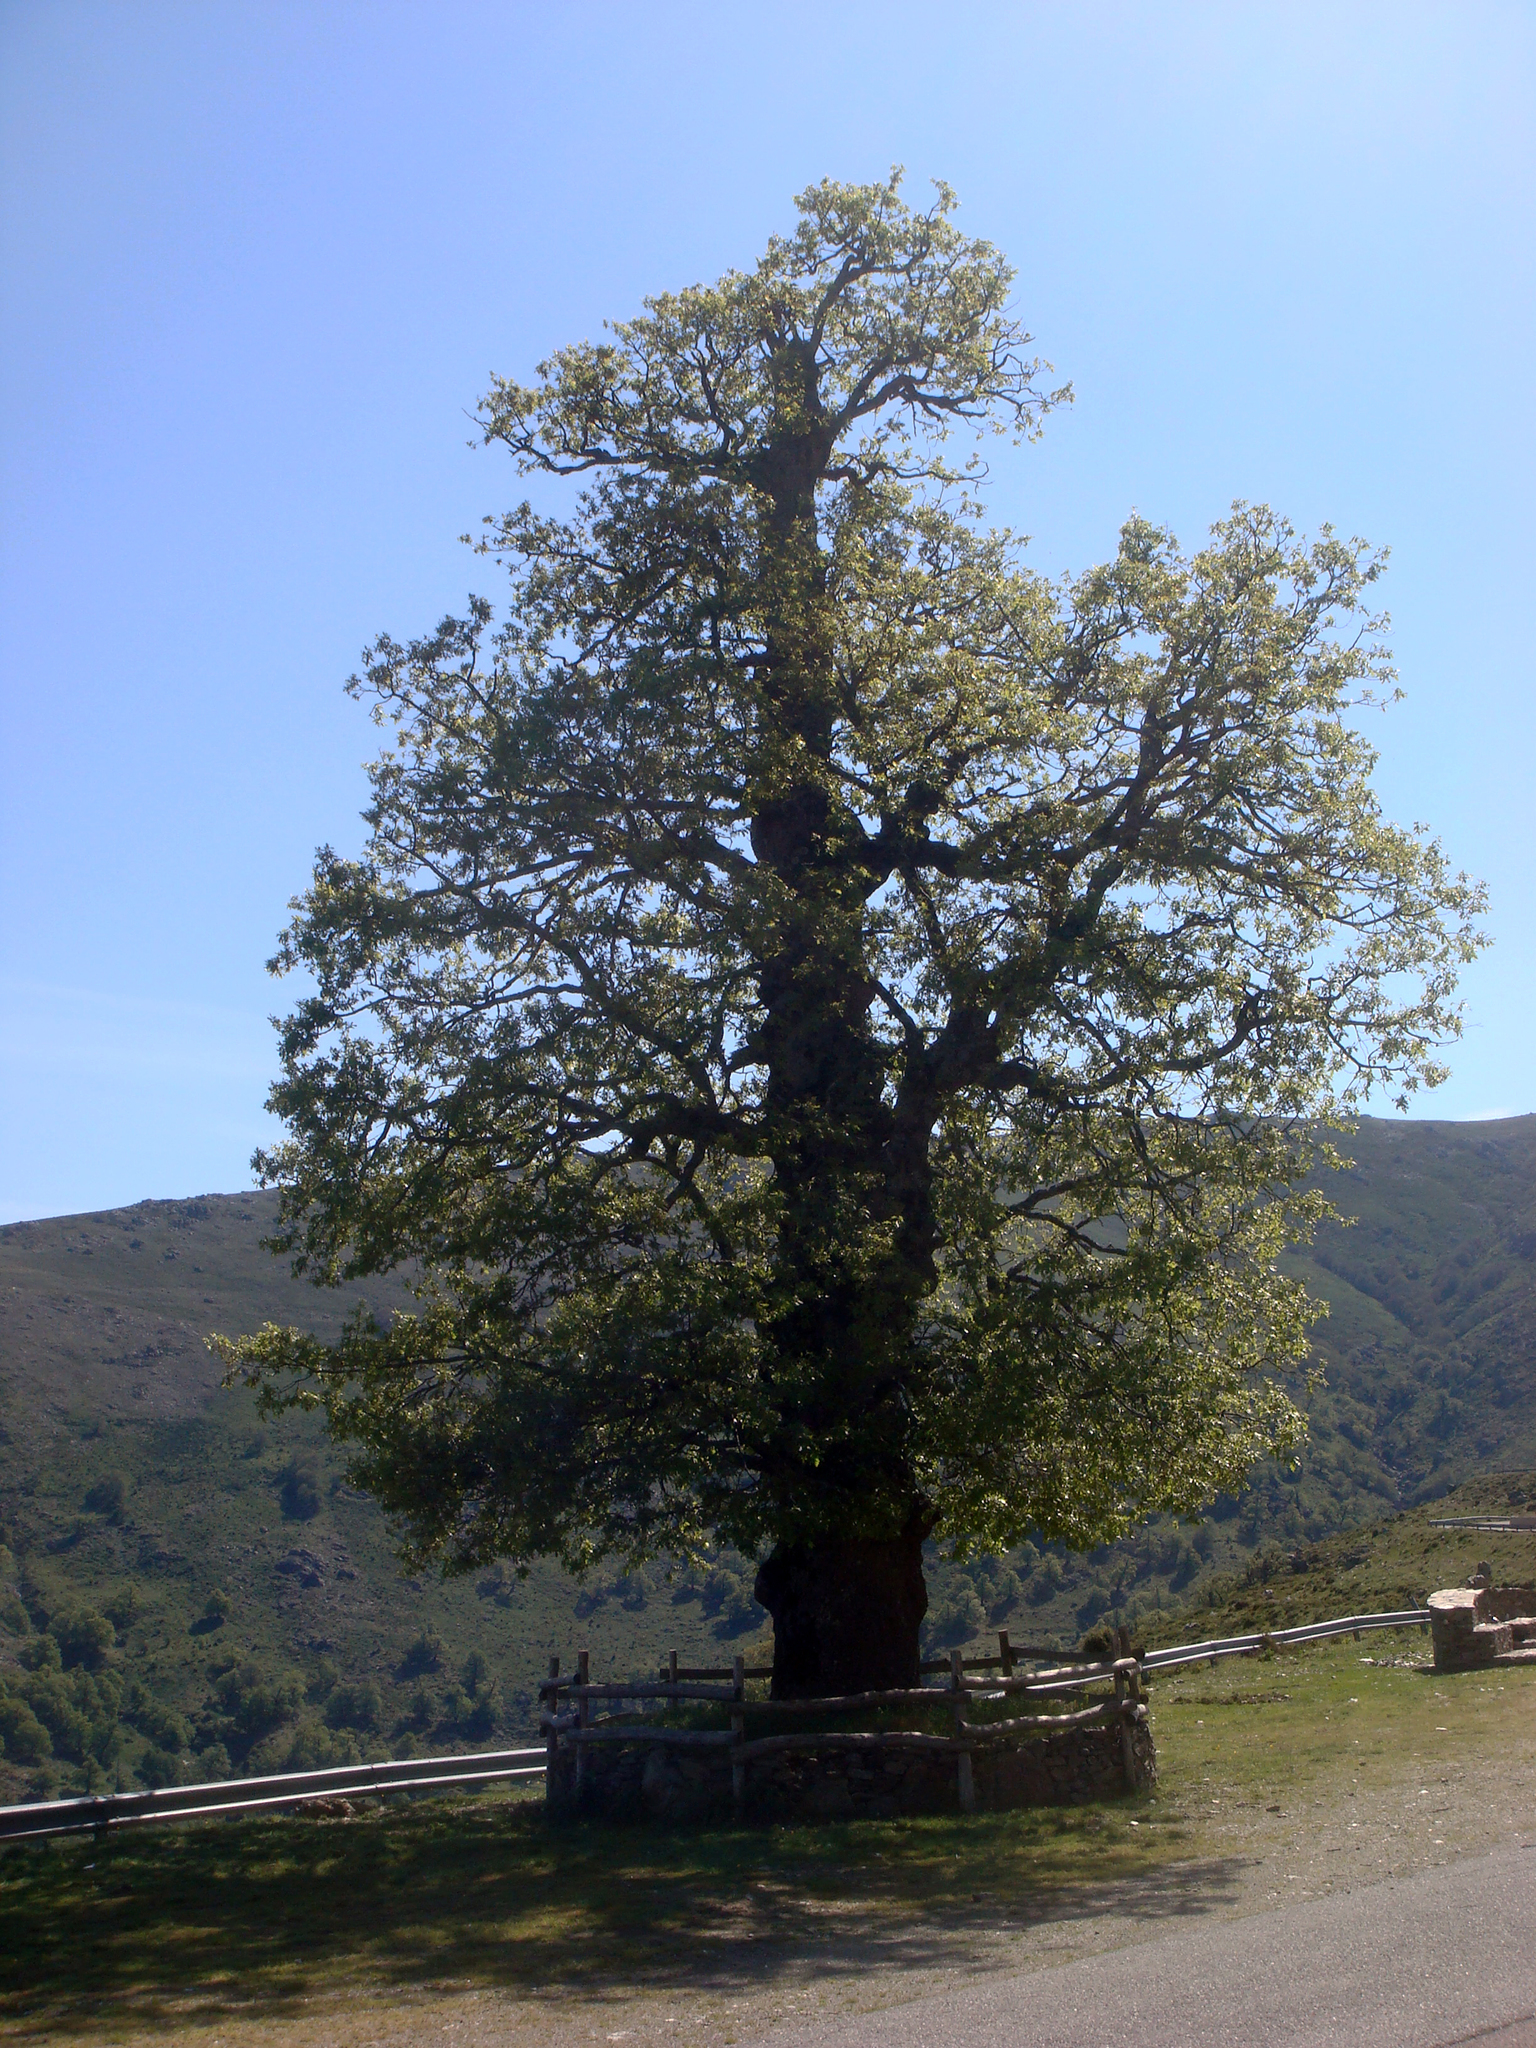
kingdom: Plantae
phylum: Tracheophyta
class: Magnoliopsida
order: Fagales
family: Fagaceae
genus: Quercus
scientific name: Quercus pubescens
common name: Downy oak
